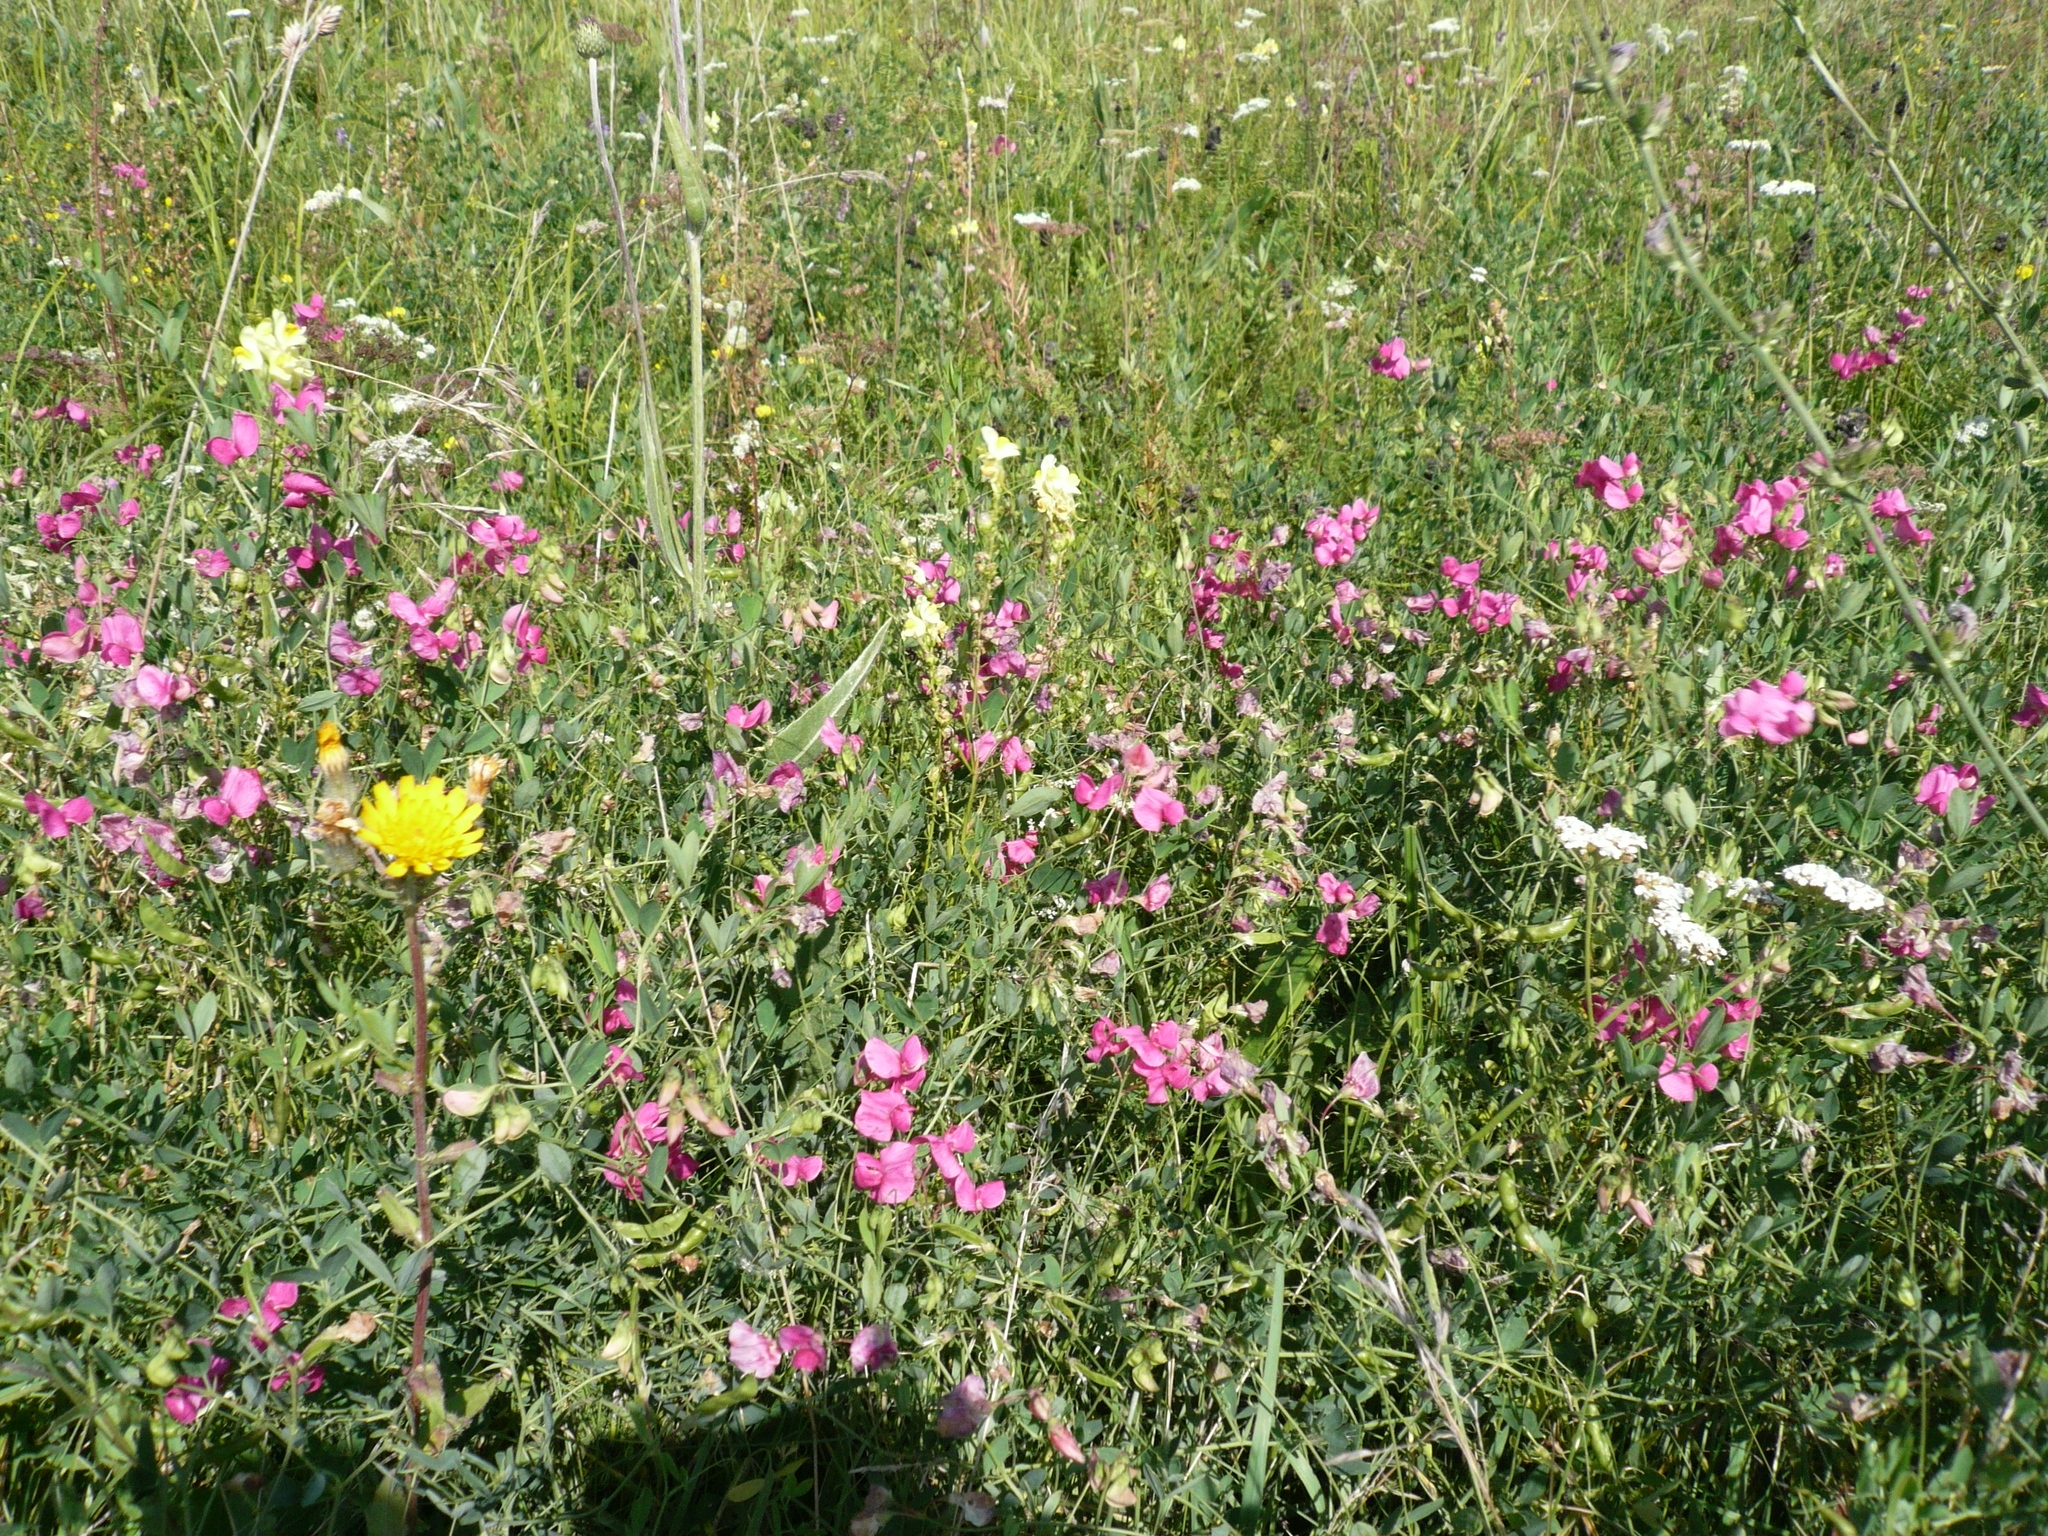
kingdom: Plantae
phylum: Tracheophyta
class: Magnoliopsida
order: Fabales
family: Fabaceae
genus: Lathyrus
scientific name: Lathyrus tuberosus
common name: Tuberous pea
